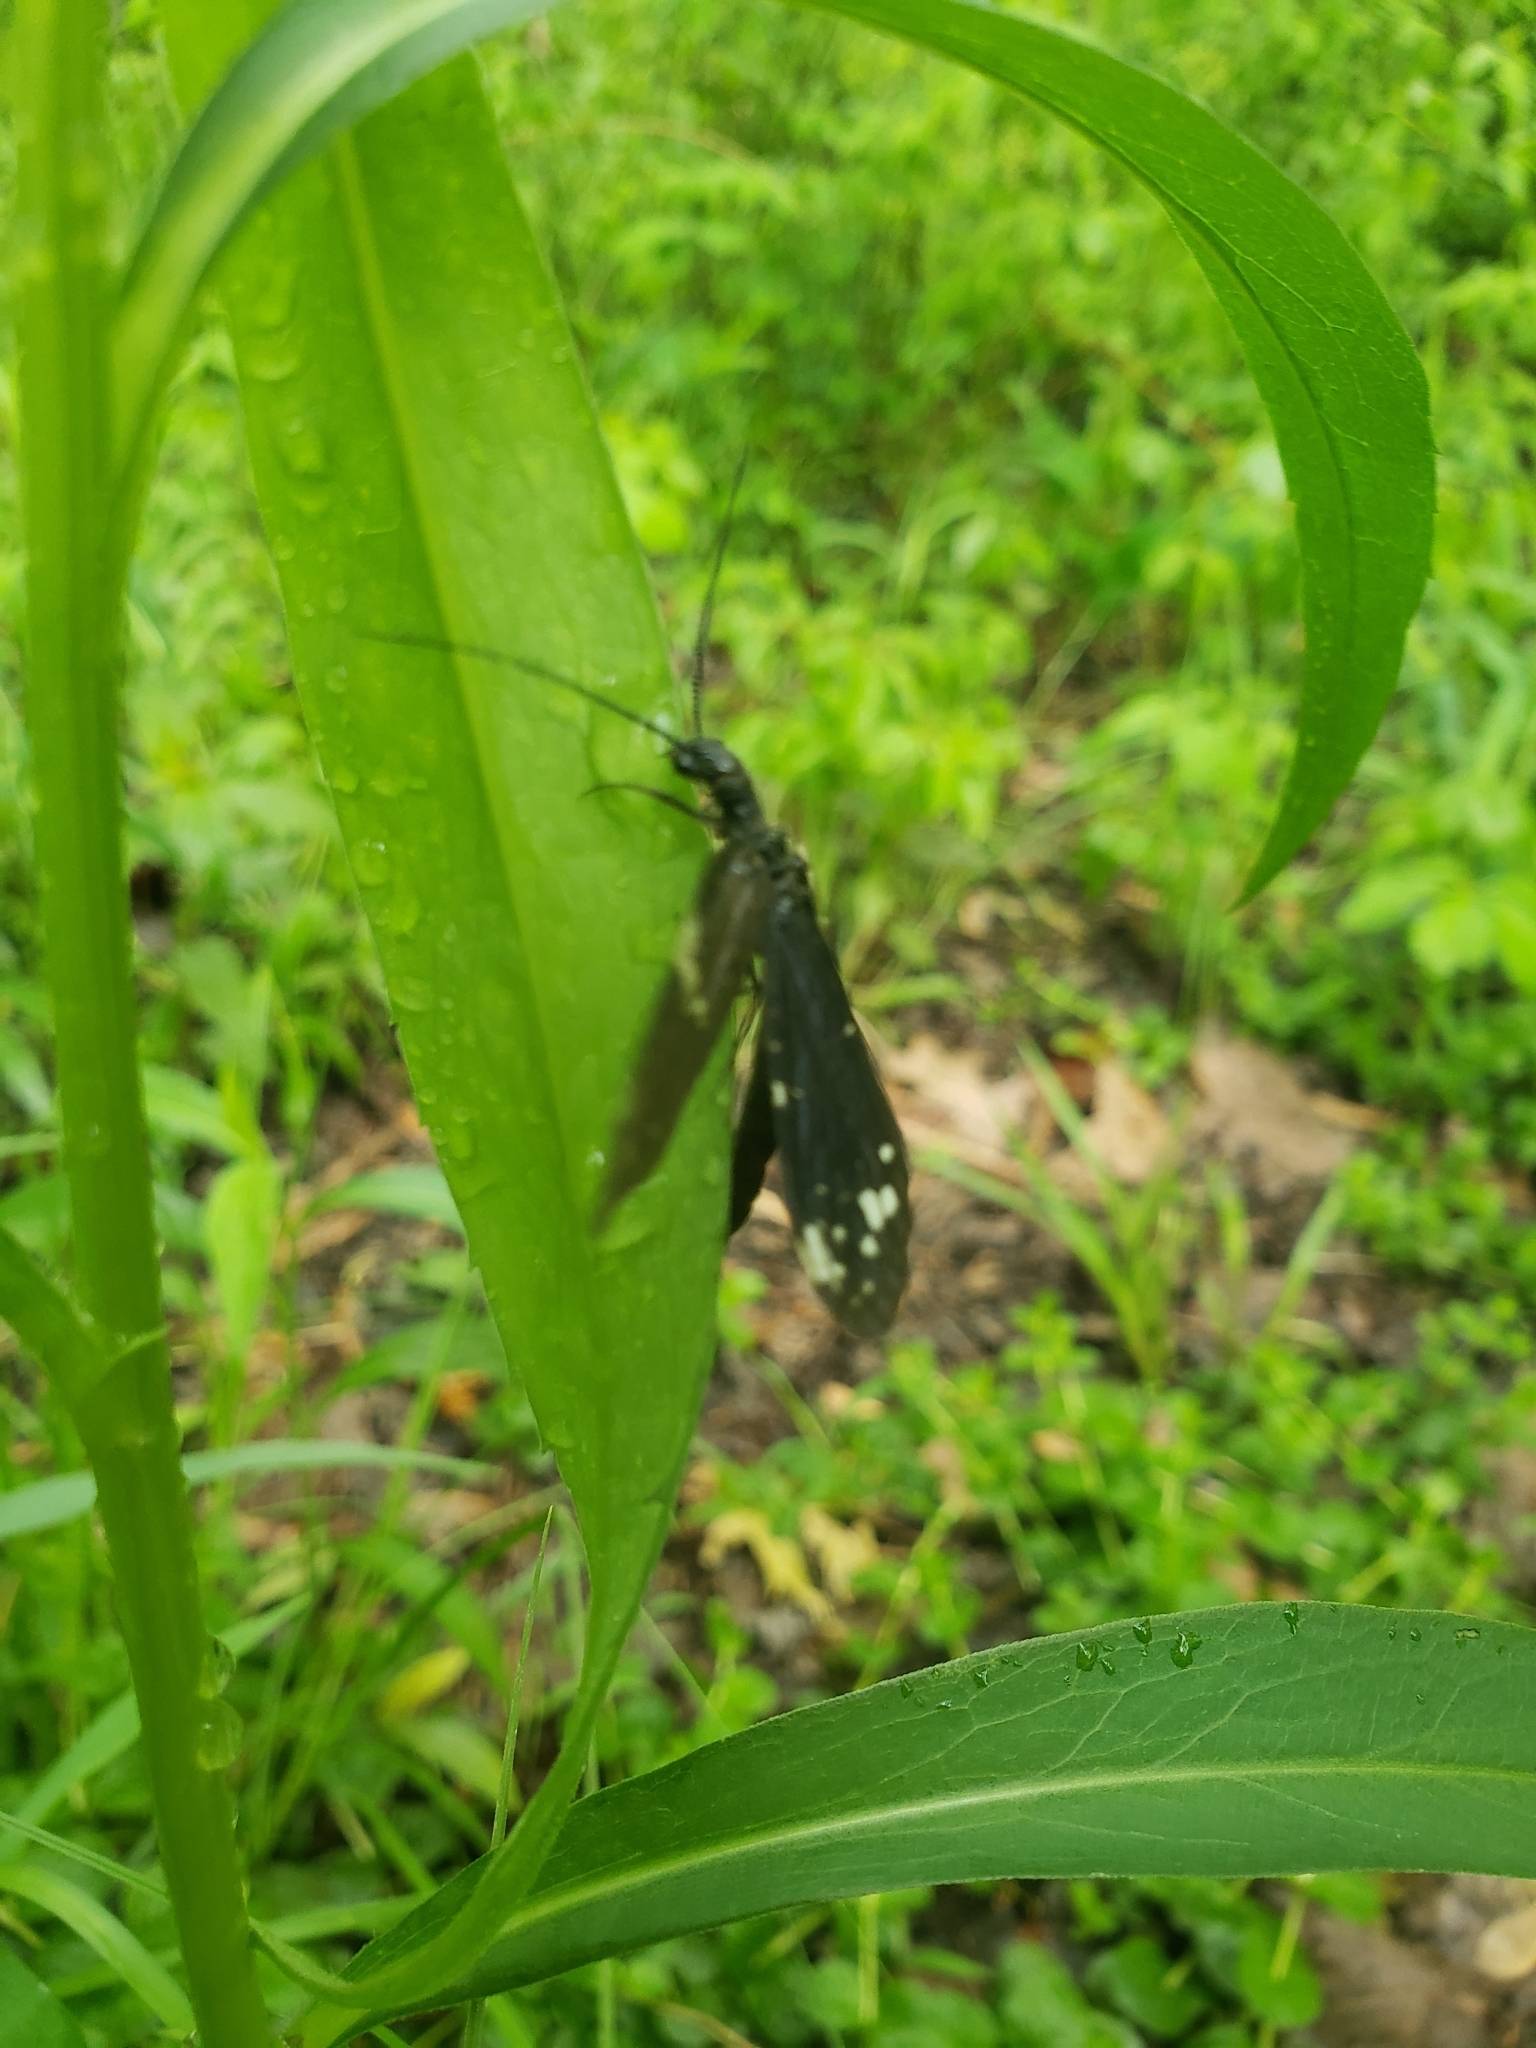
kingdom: Animalia
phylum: Arthropoda
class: Insecta
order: Megaloptera
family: Corydalidae
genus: Nigronia
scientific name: Nigronia serricornis
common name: Serrate dark fishfly
